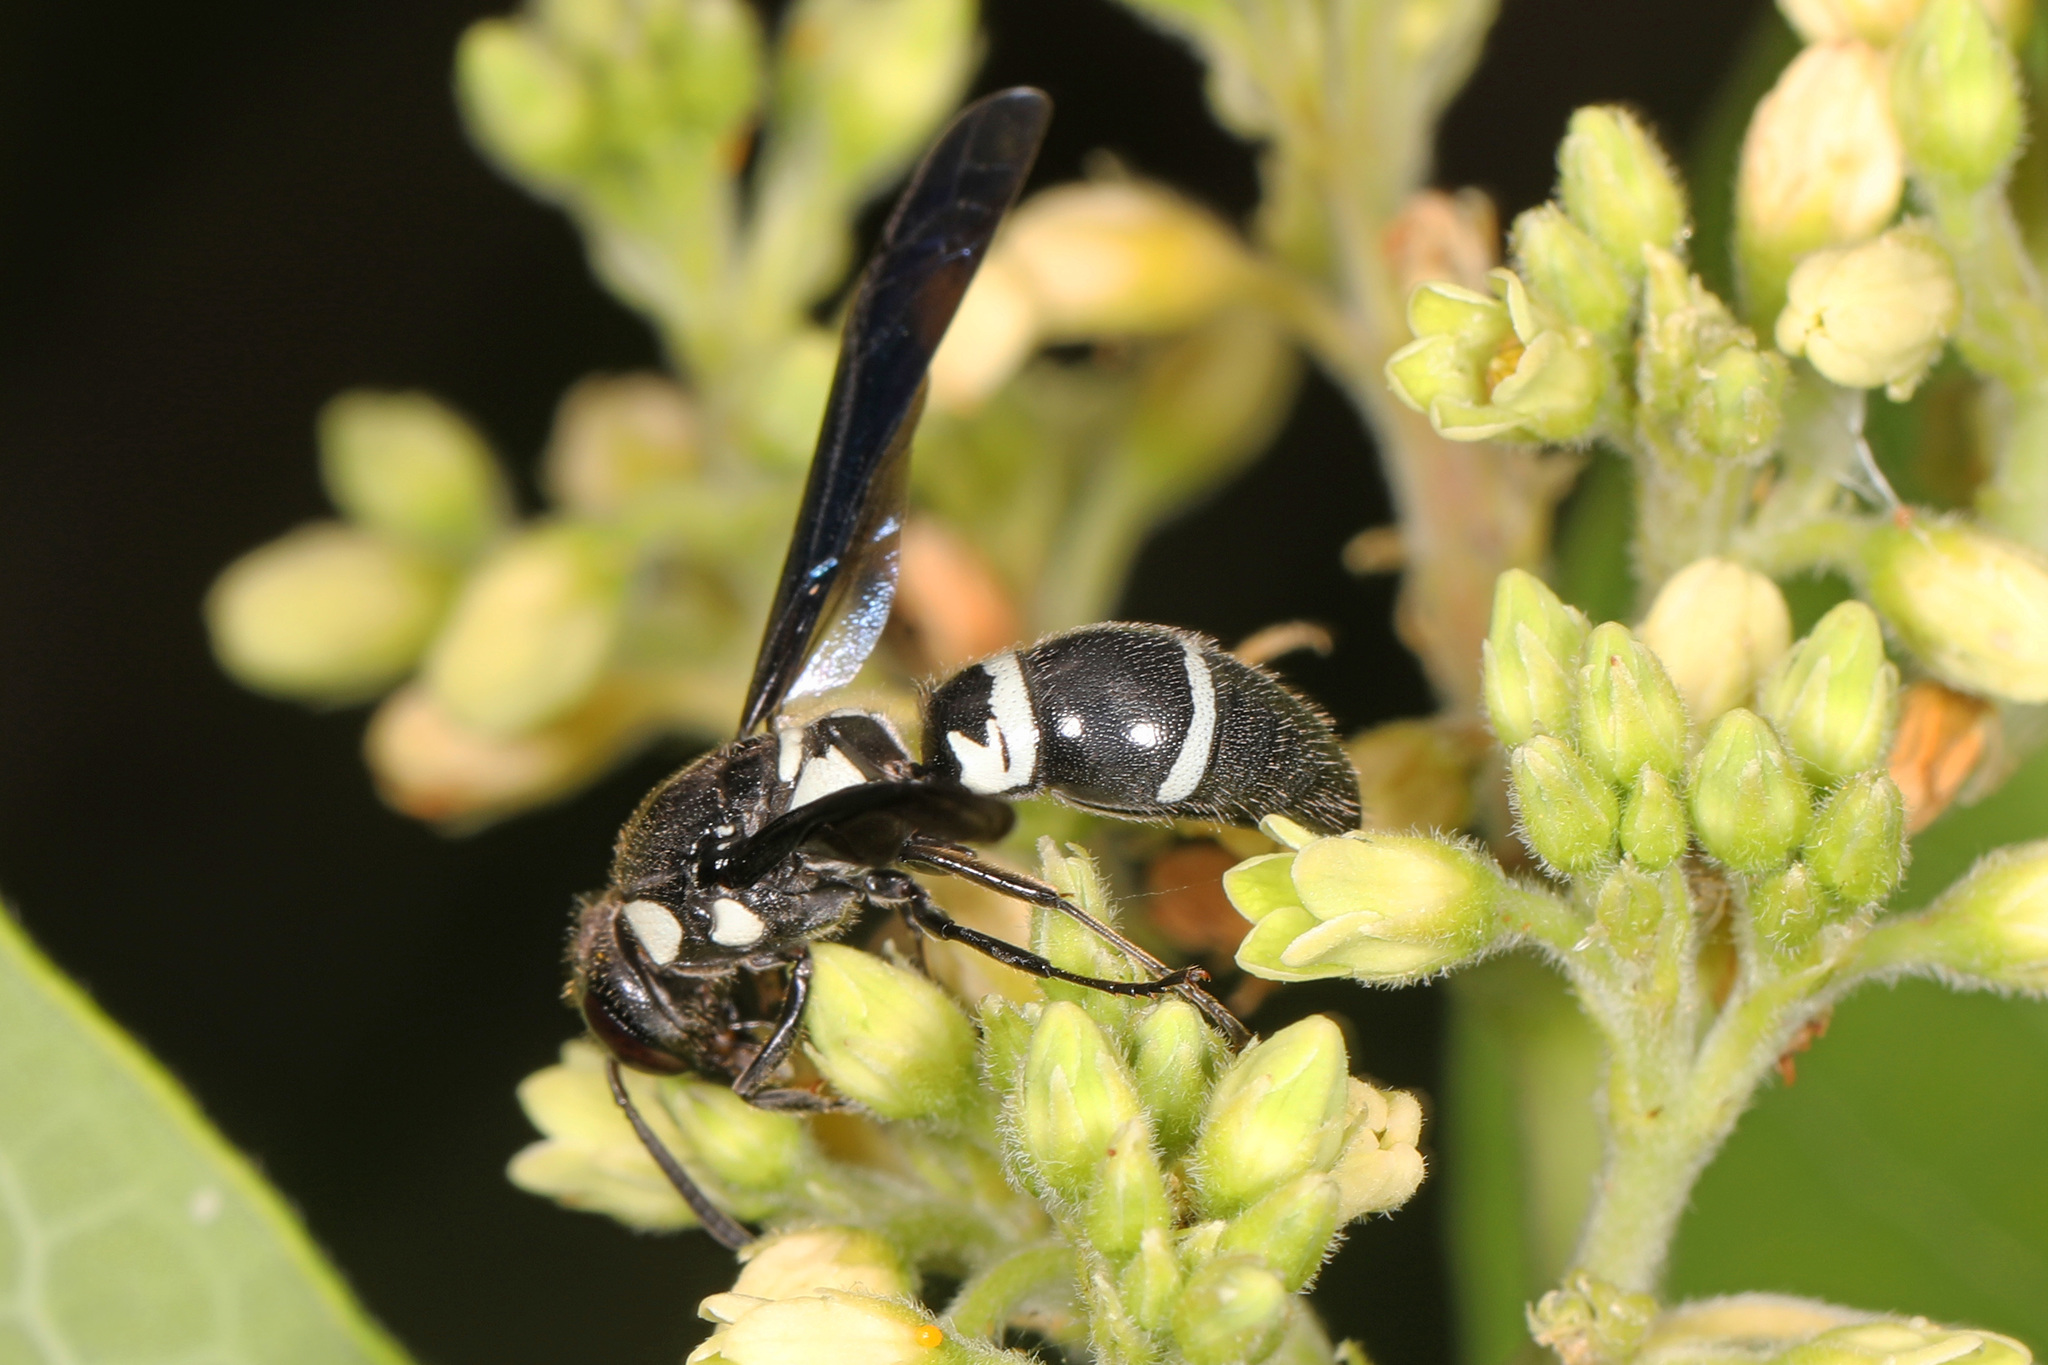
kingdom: Animalia
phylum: Arthropoda
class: Insecta
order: Hymenoptera
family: Eumenidae
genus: Pseudodynerus
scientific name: Pseudodynerus quadrisectus
